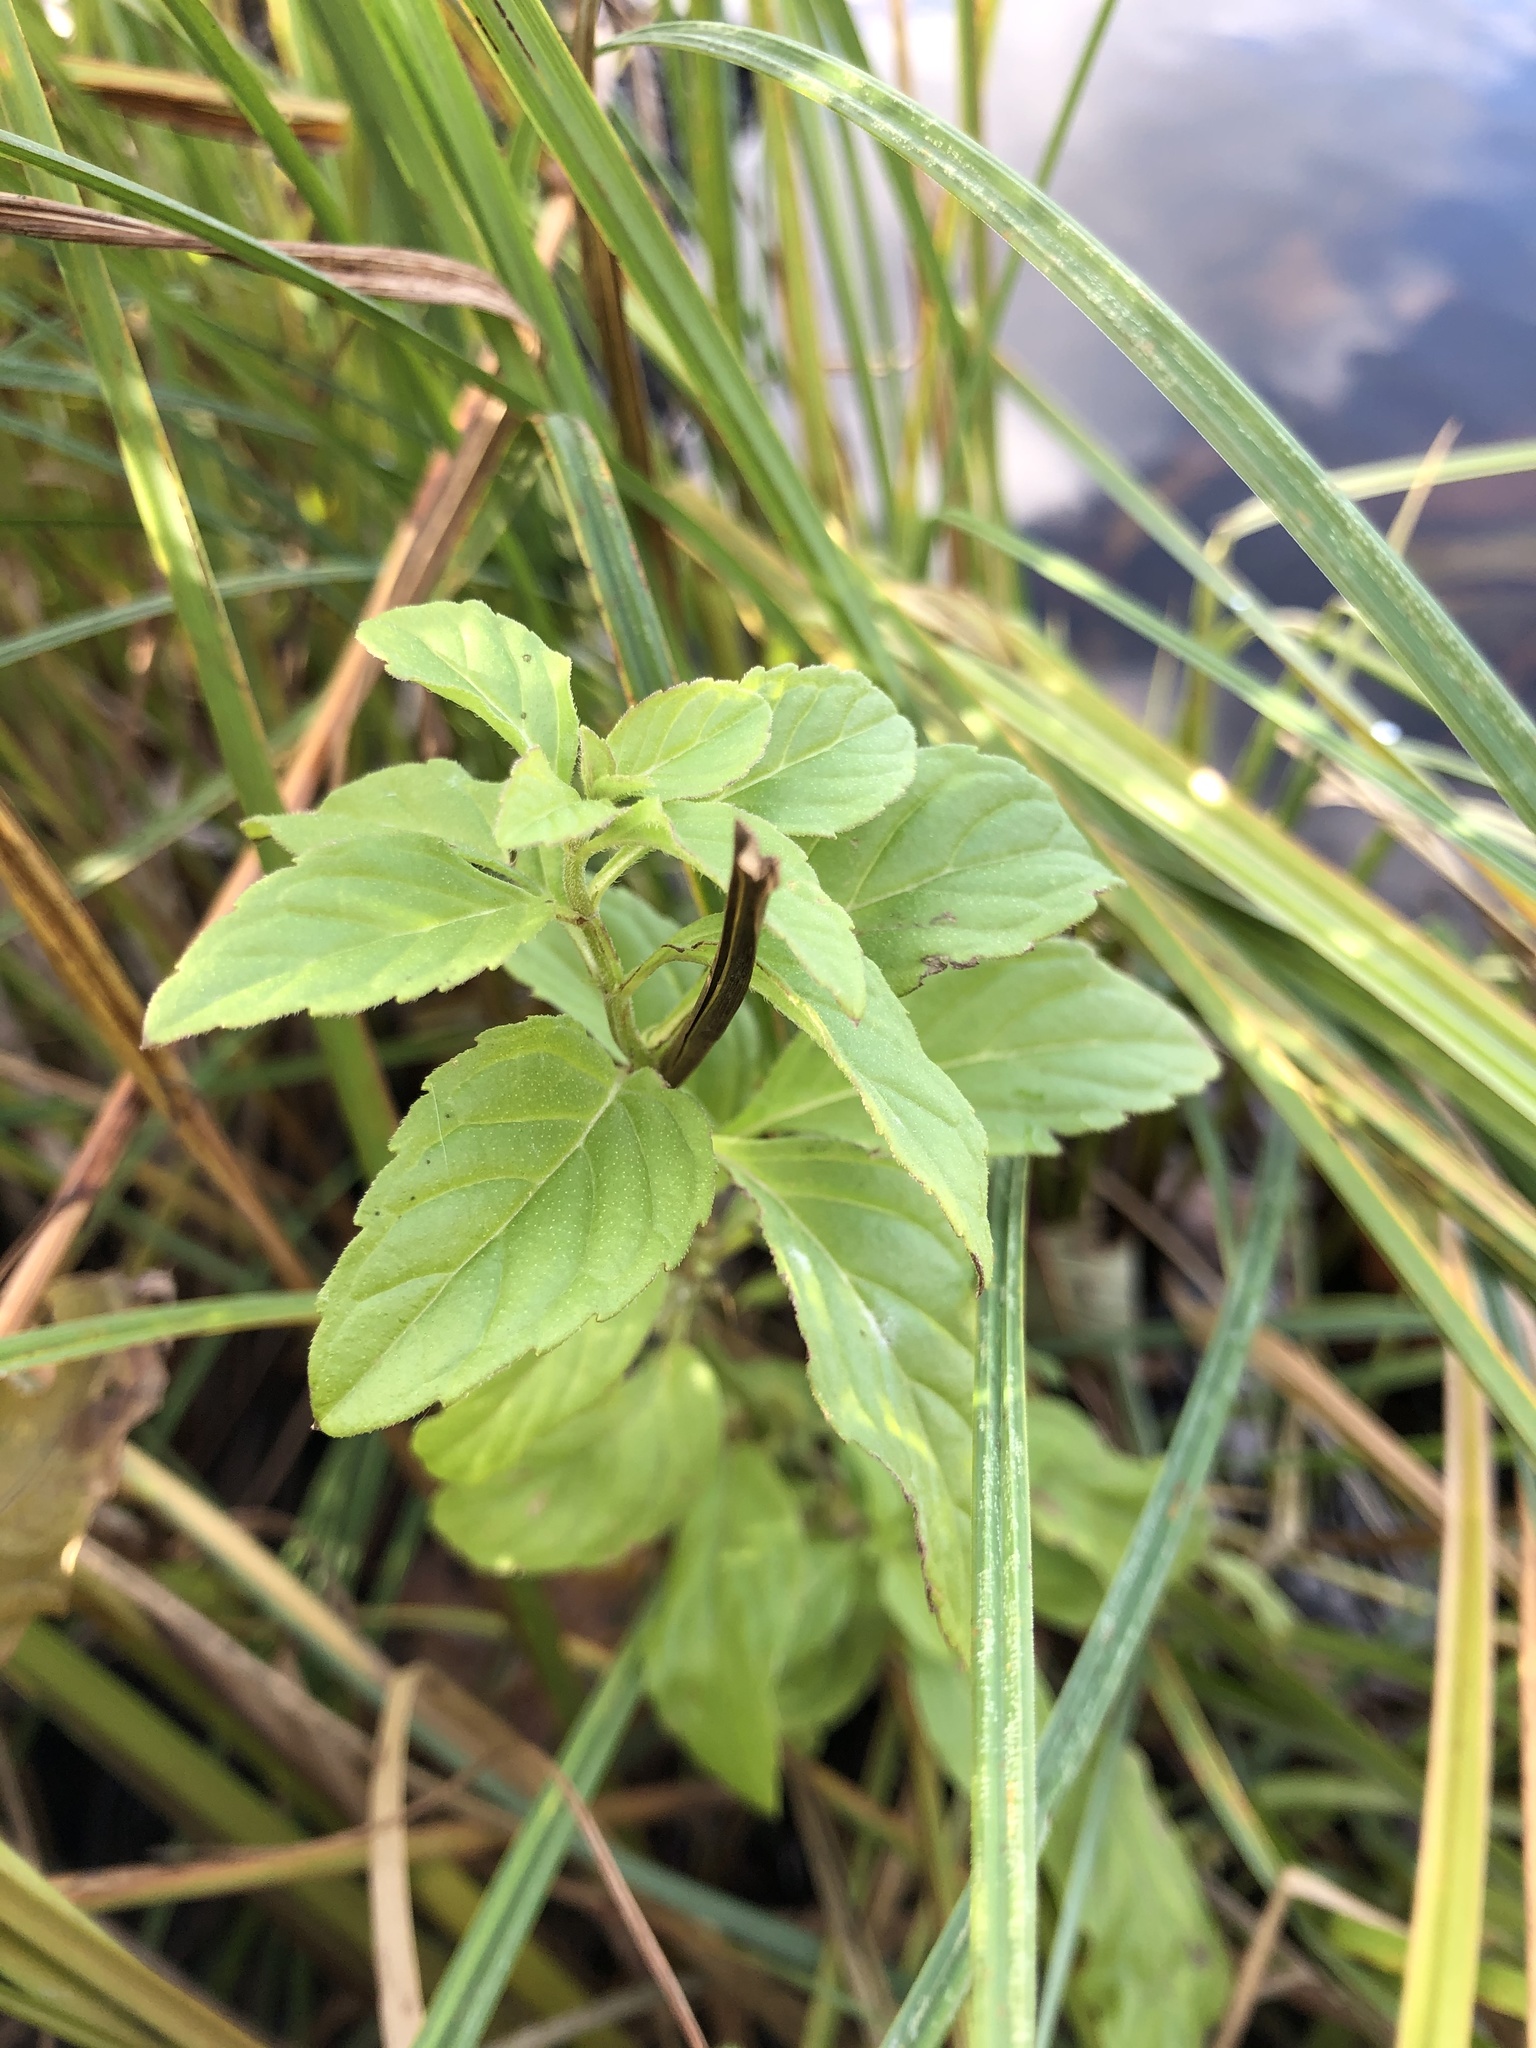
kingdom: Plantae
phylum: Tracheophyta
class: Magnoliopsida
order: Lamiales
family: Lamiaceae
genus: Mentha
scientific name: Mentha arvensis
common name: Corn mint
